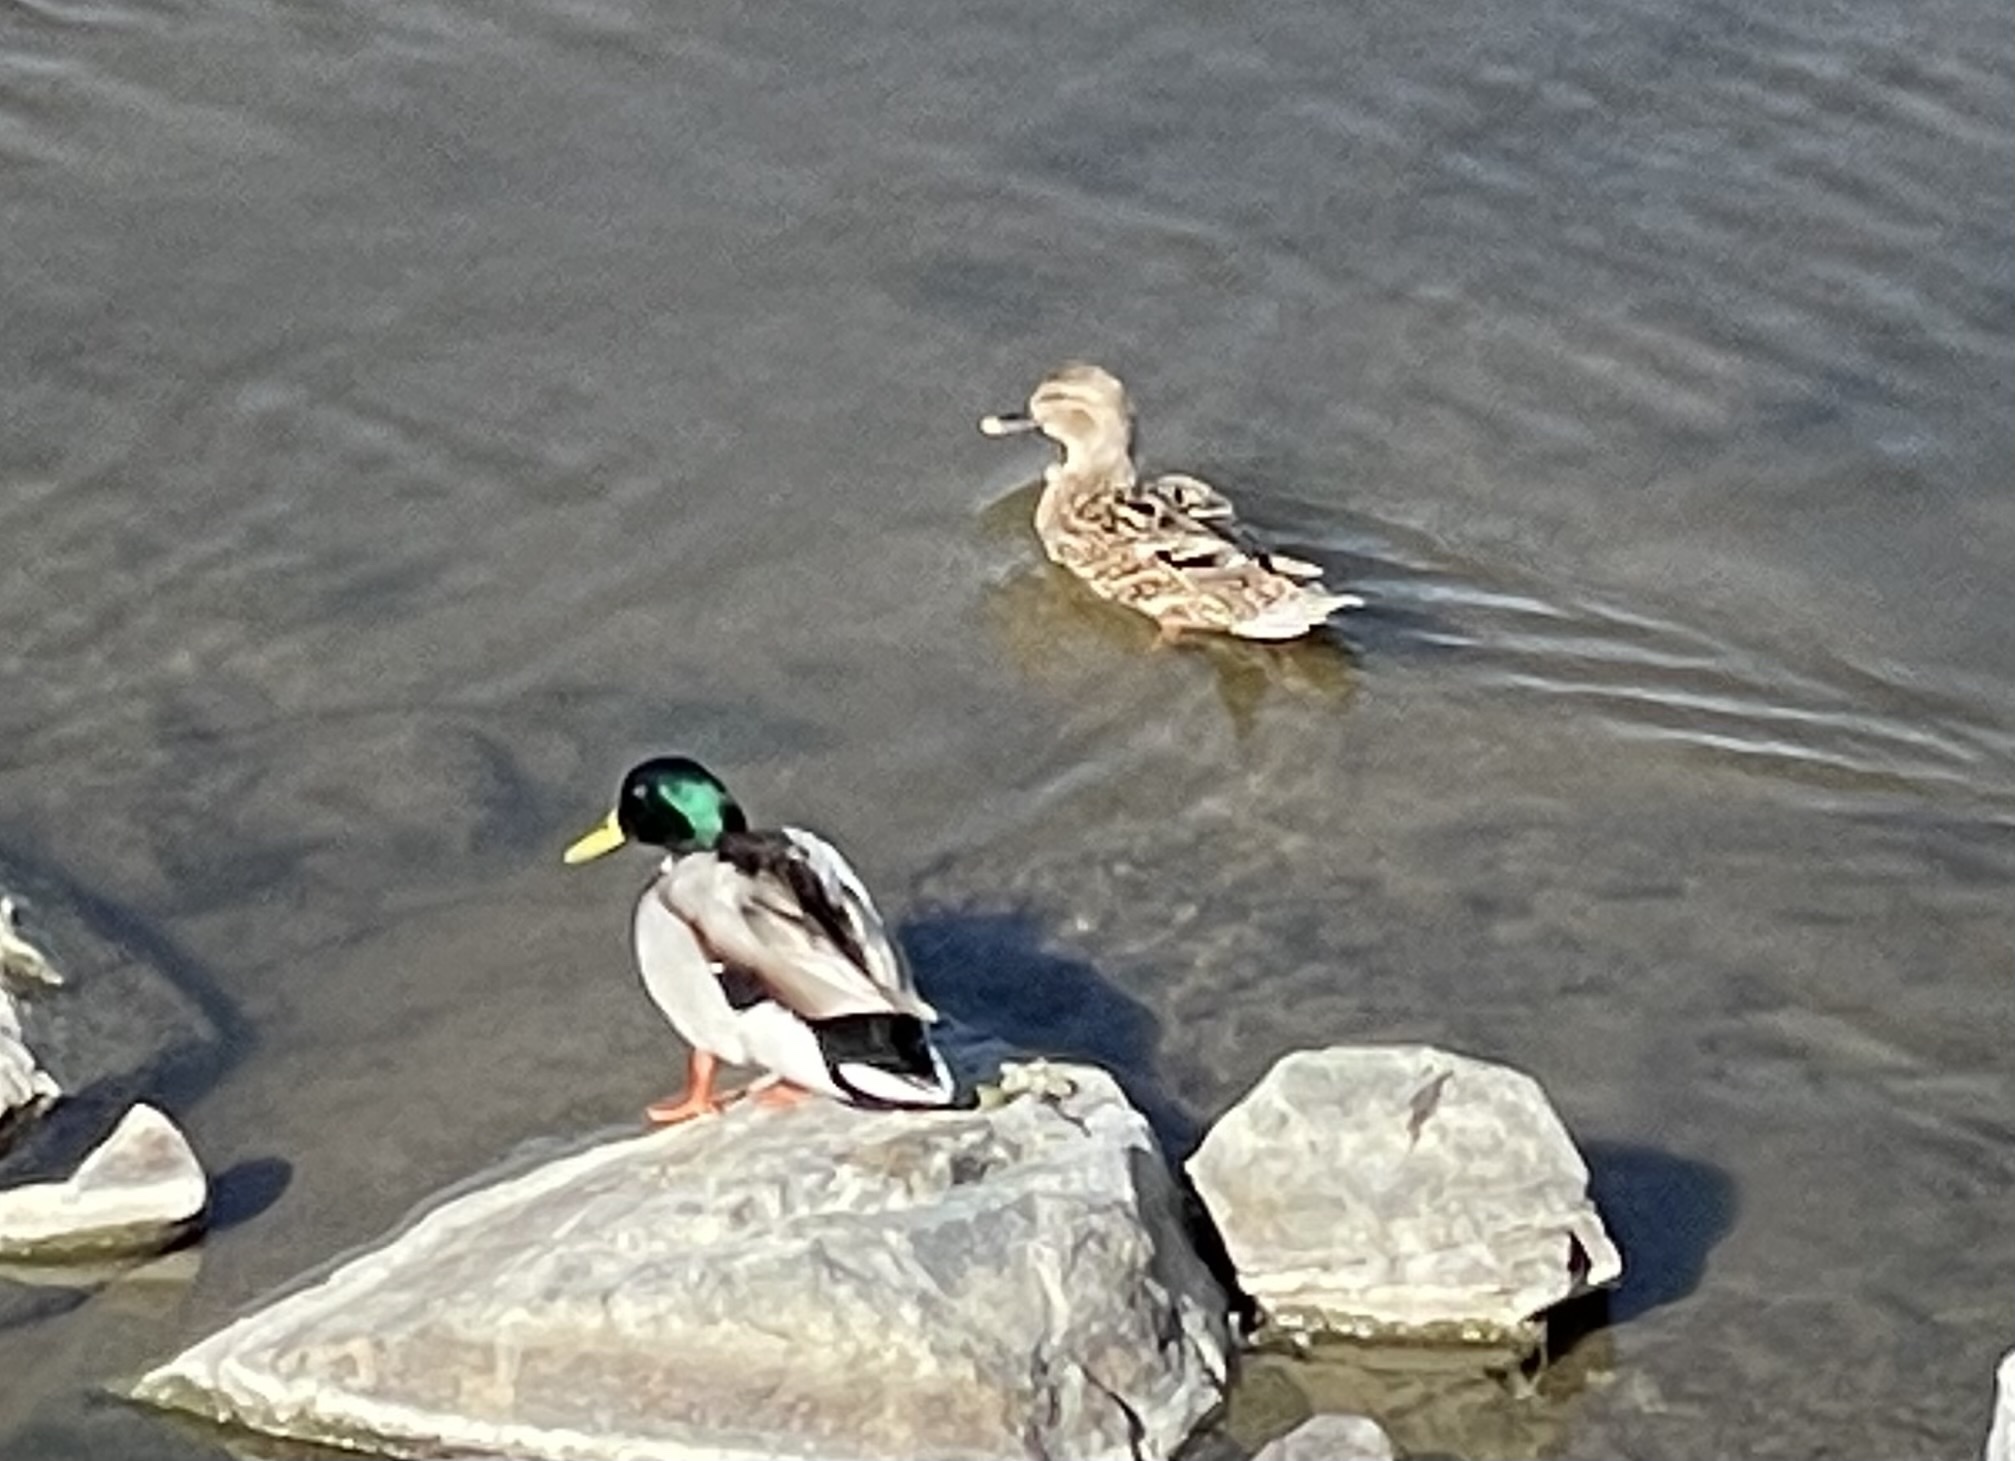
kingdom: Animalia
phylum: Chordata
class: Aves
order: Anseriformes
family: Anatidae
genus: Anas
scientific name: Anas platyrhynchos
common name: Mallard
